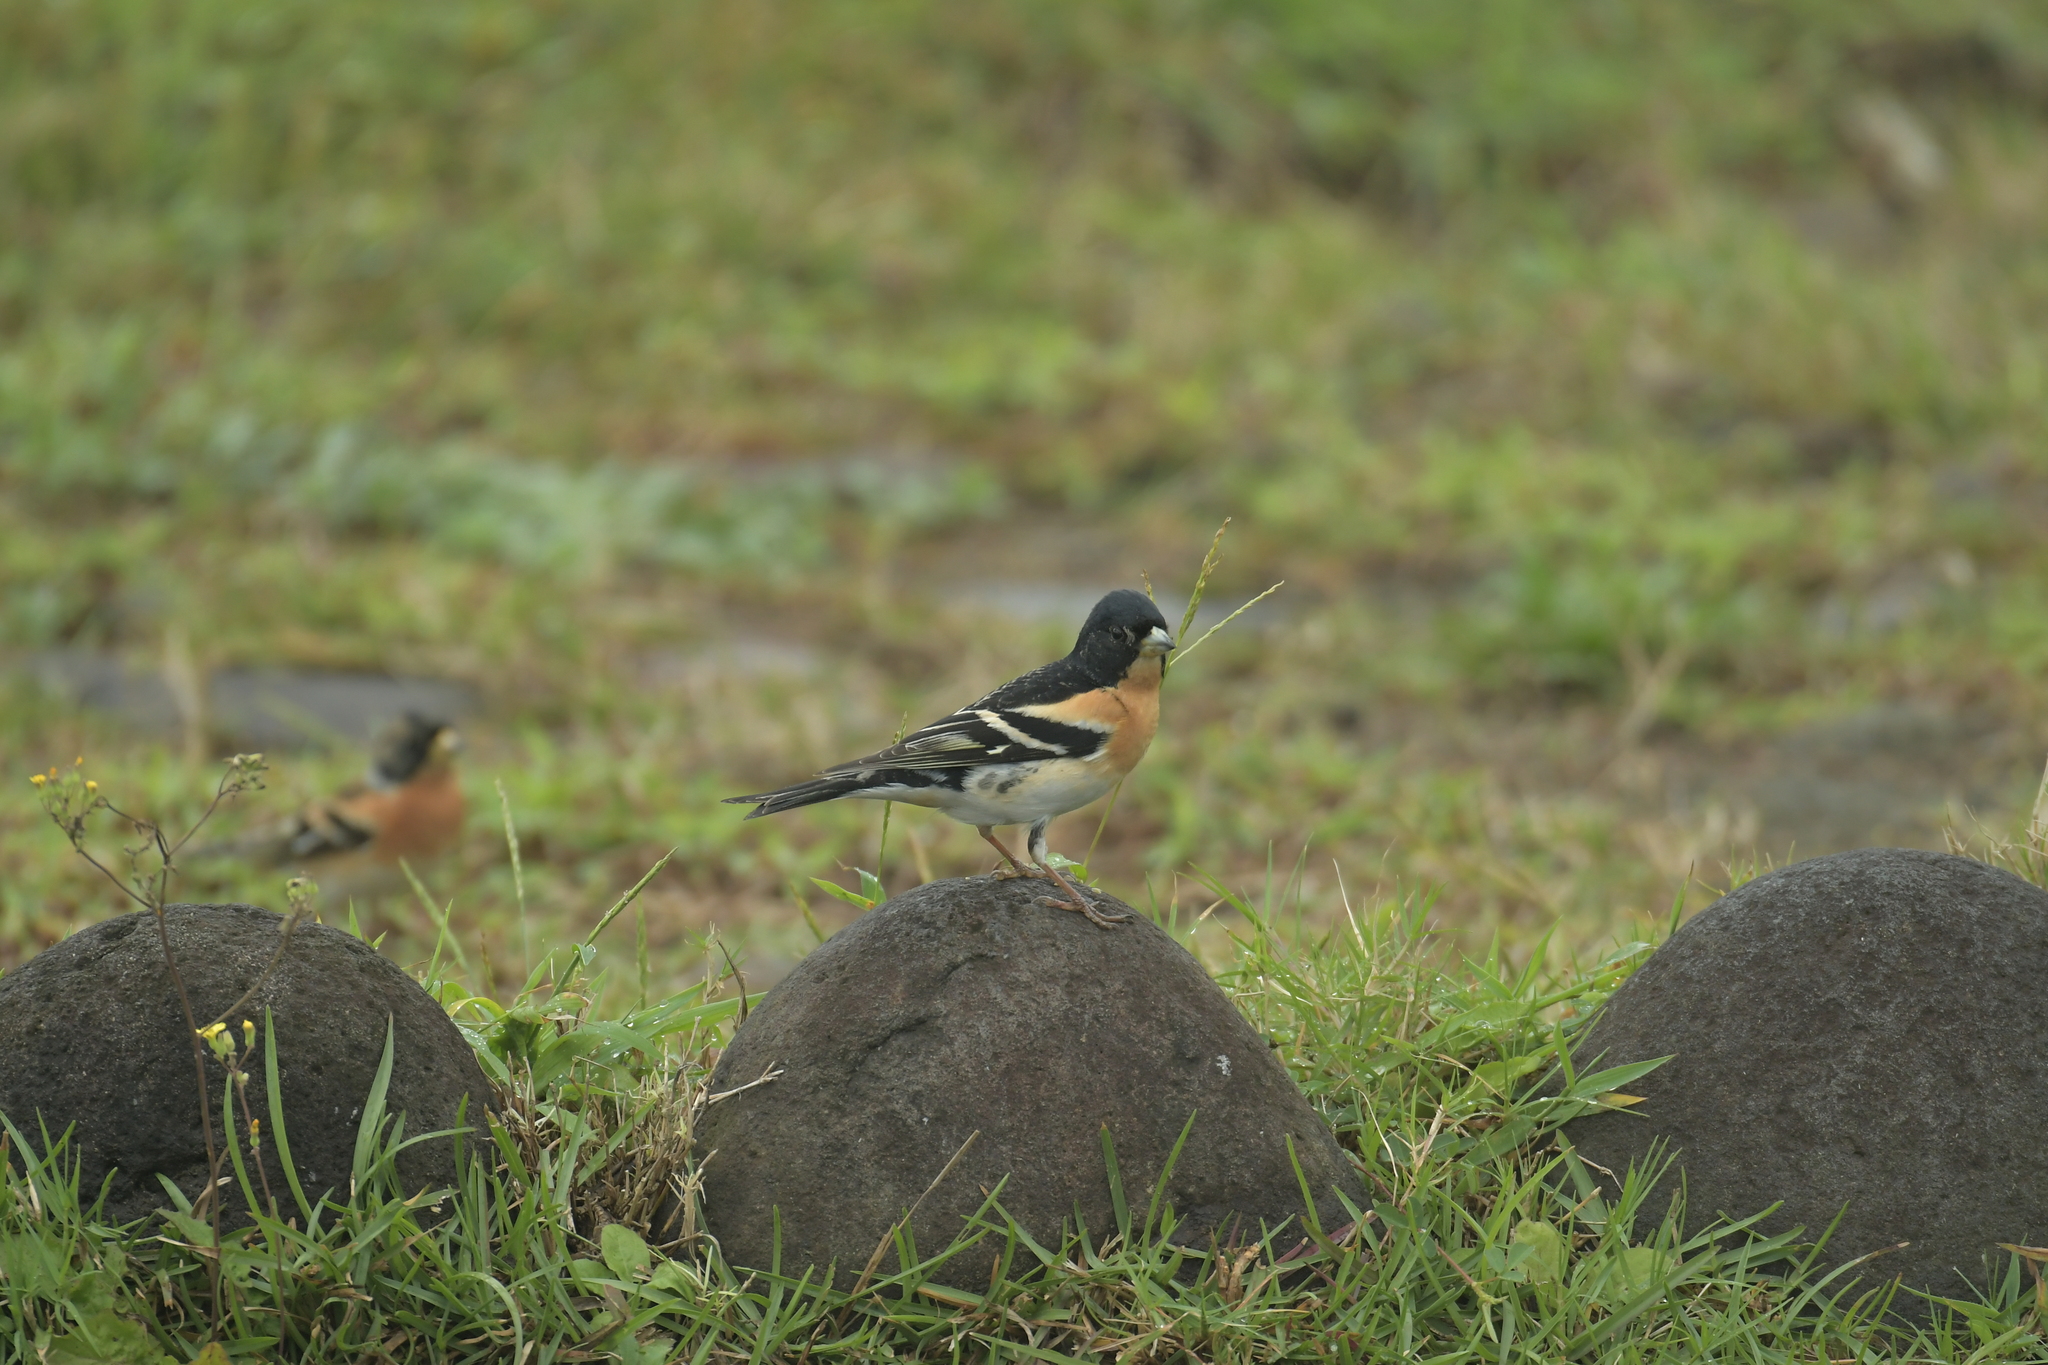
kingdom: Animalia
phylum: Chordata
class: Aves
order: Passeriformes
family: Fringillidae
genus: Fringilla
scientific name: Fringilla montifringilla
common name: Brambling
